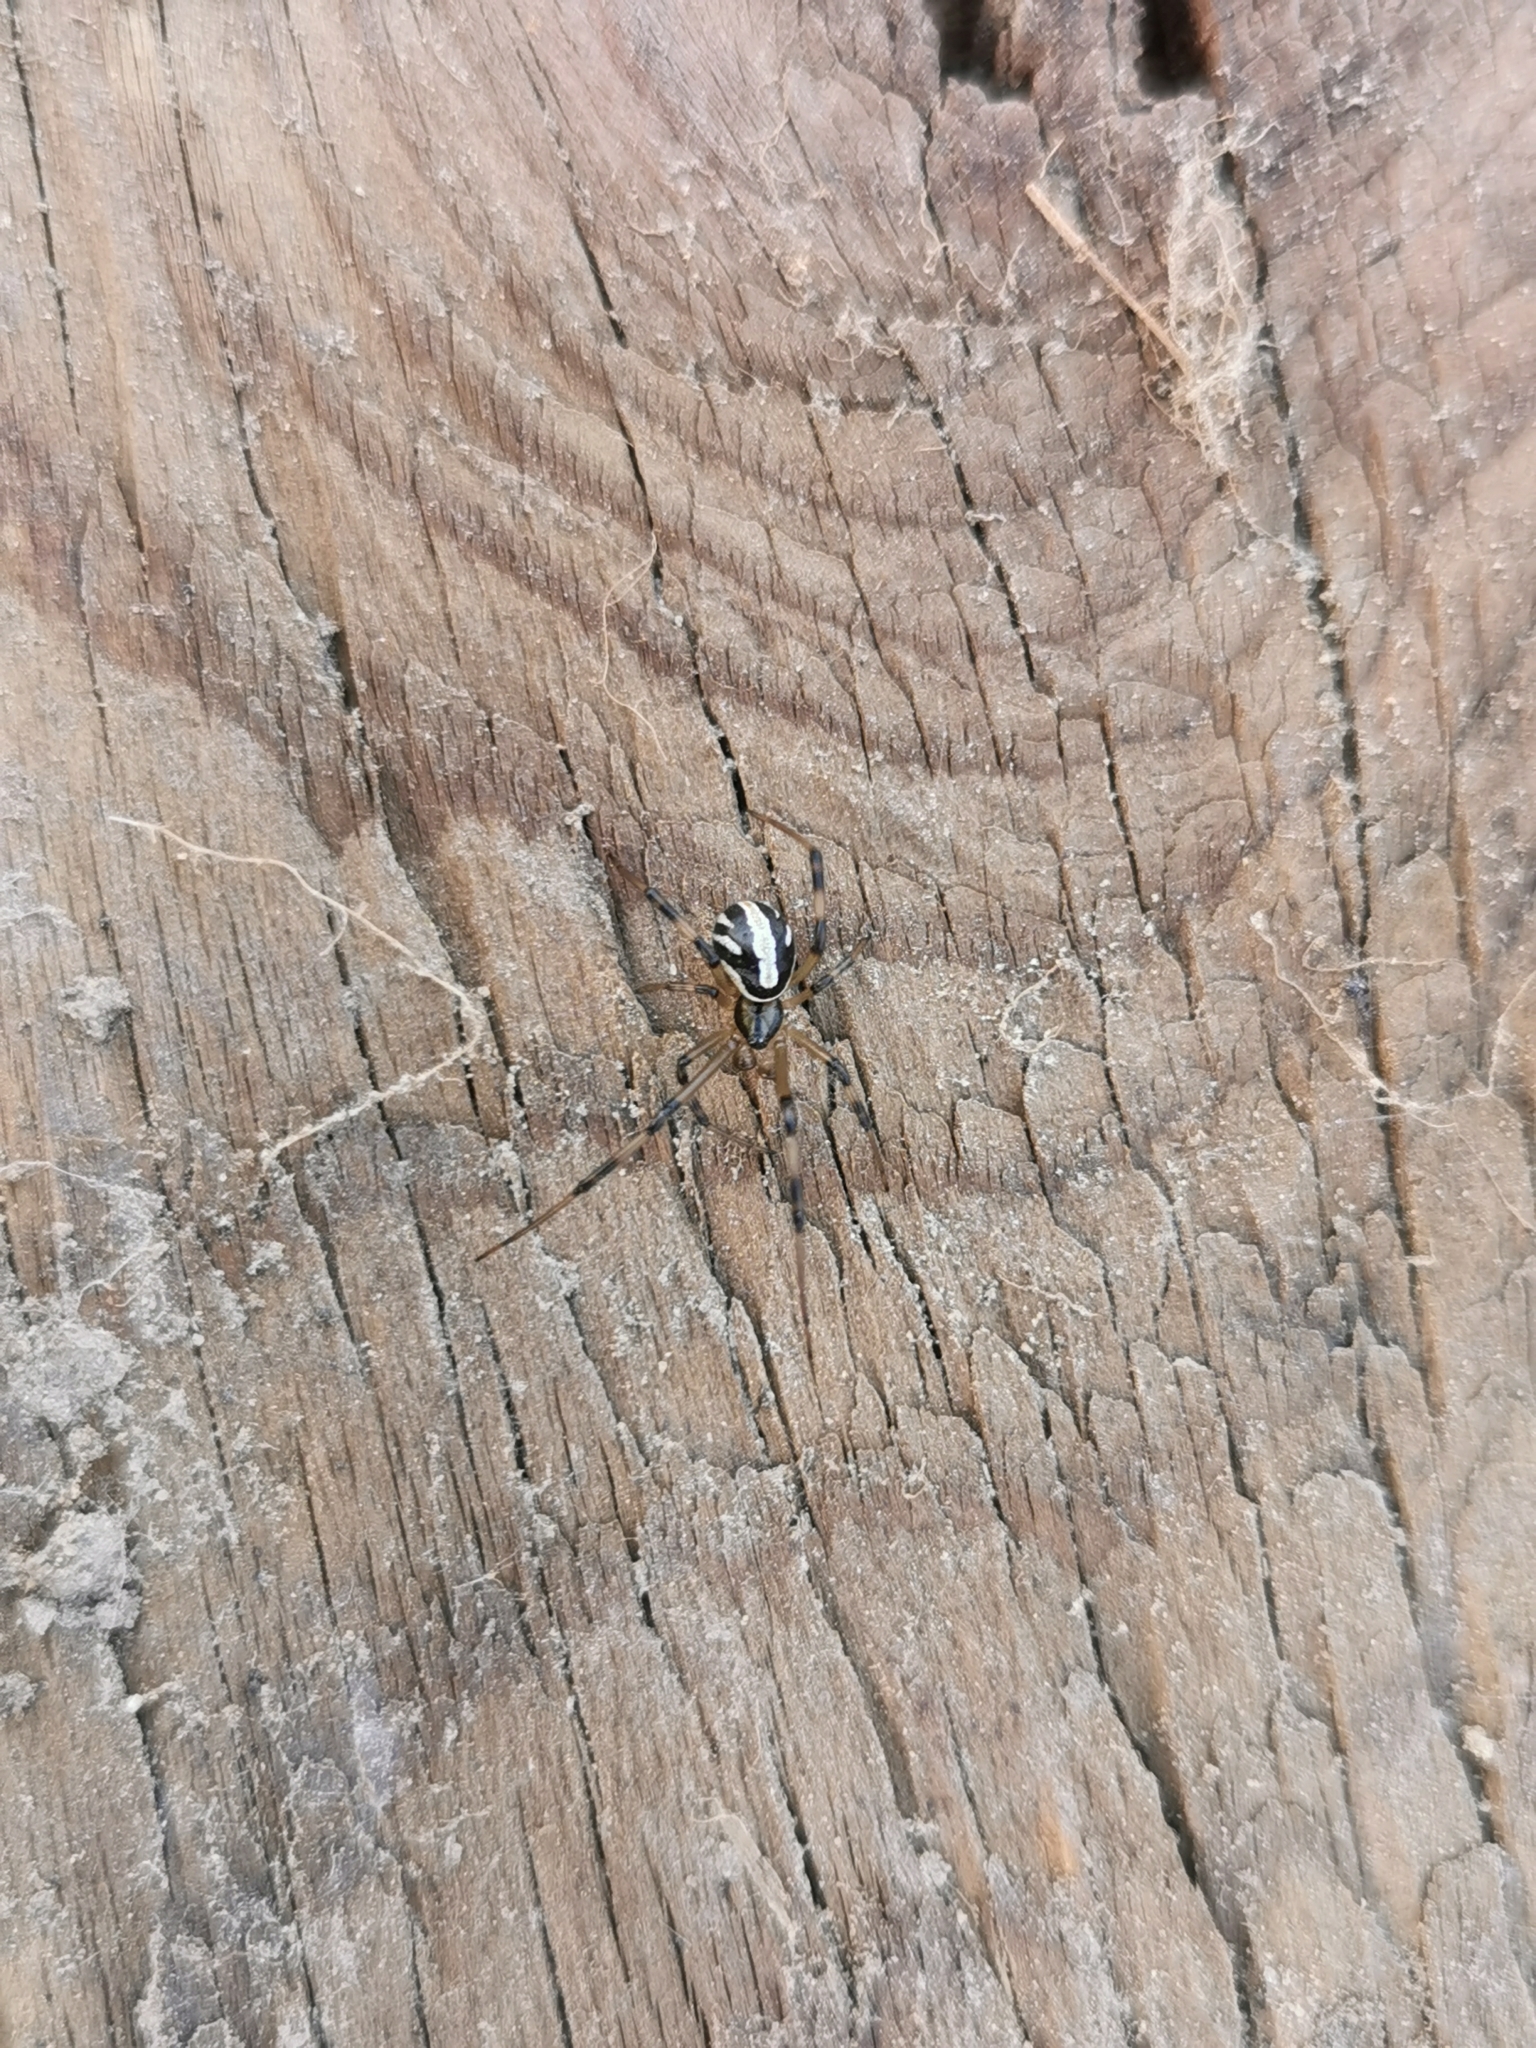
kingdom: Animalia
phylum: Arthropoda
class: Arachnida
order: Araneae
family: Theridiidae
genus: Latrodectus
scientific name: Latrodectus hesperus
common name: Western black widow
